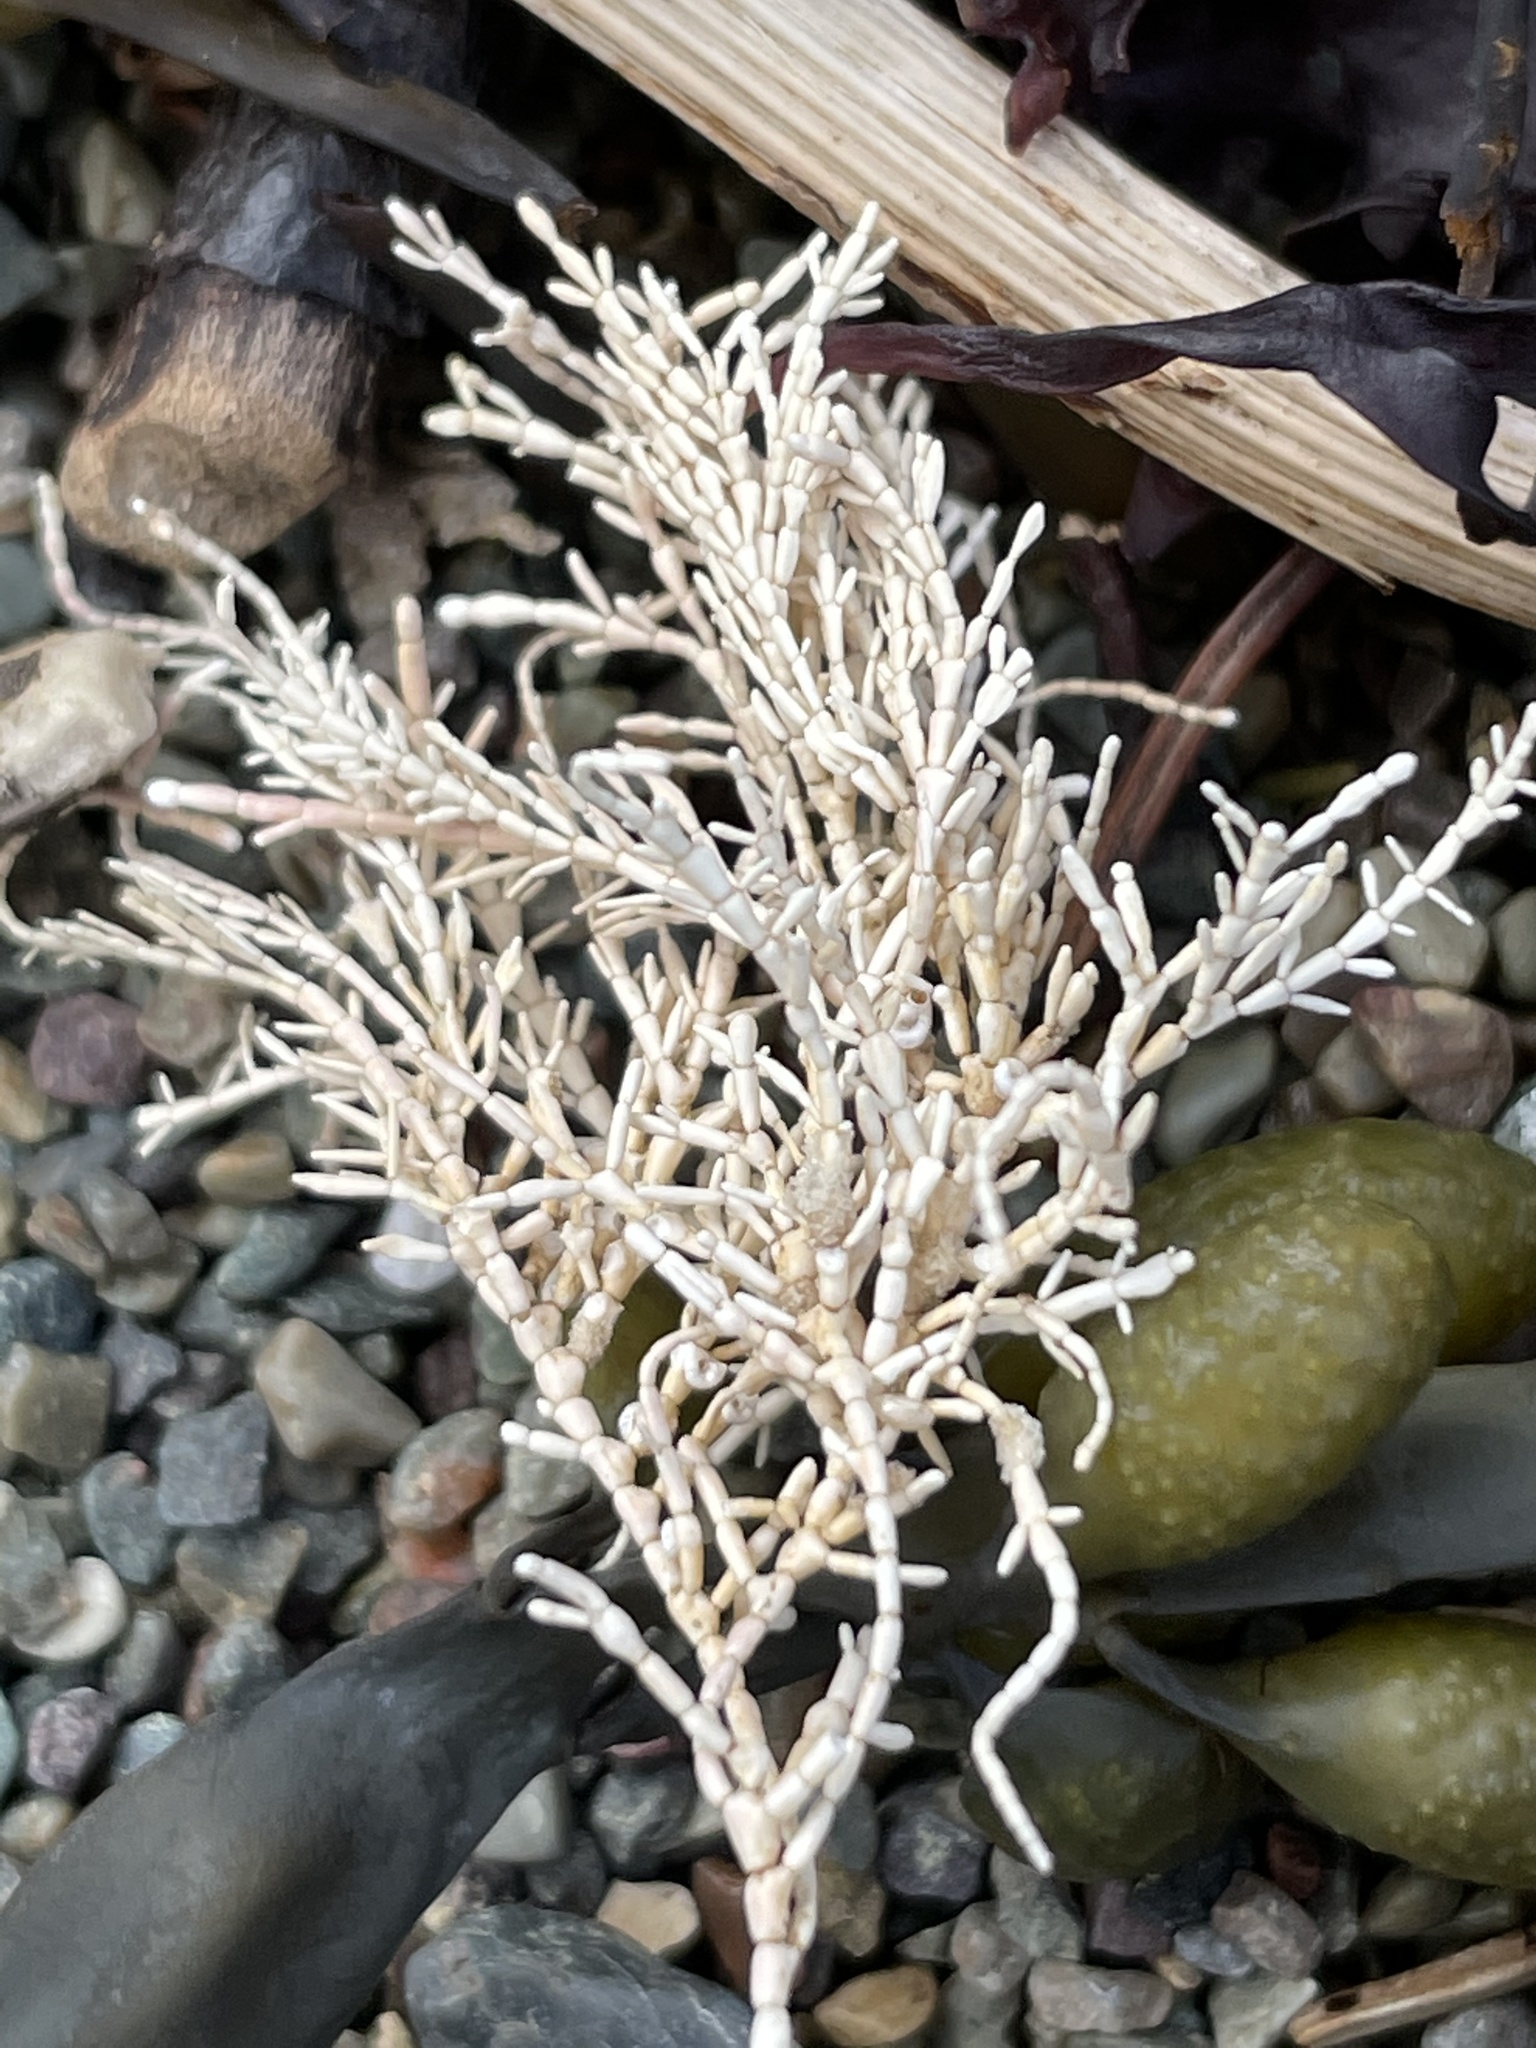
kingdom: Plantae
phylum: Rhodophyta
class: Florideophyceae
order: Corallinales
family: Corallinaceae
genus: Corallina
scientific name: Corallina officinalis
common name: Coral weed
